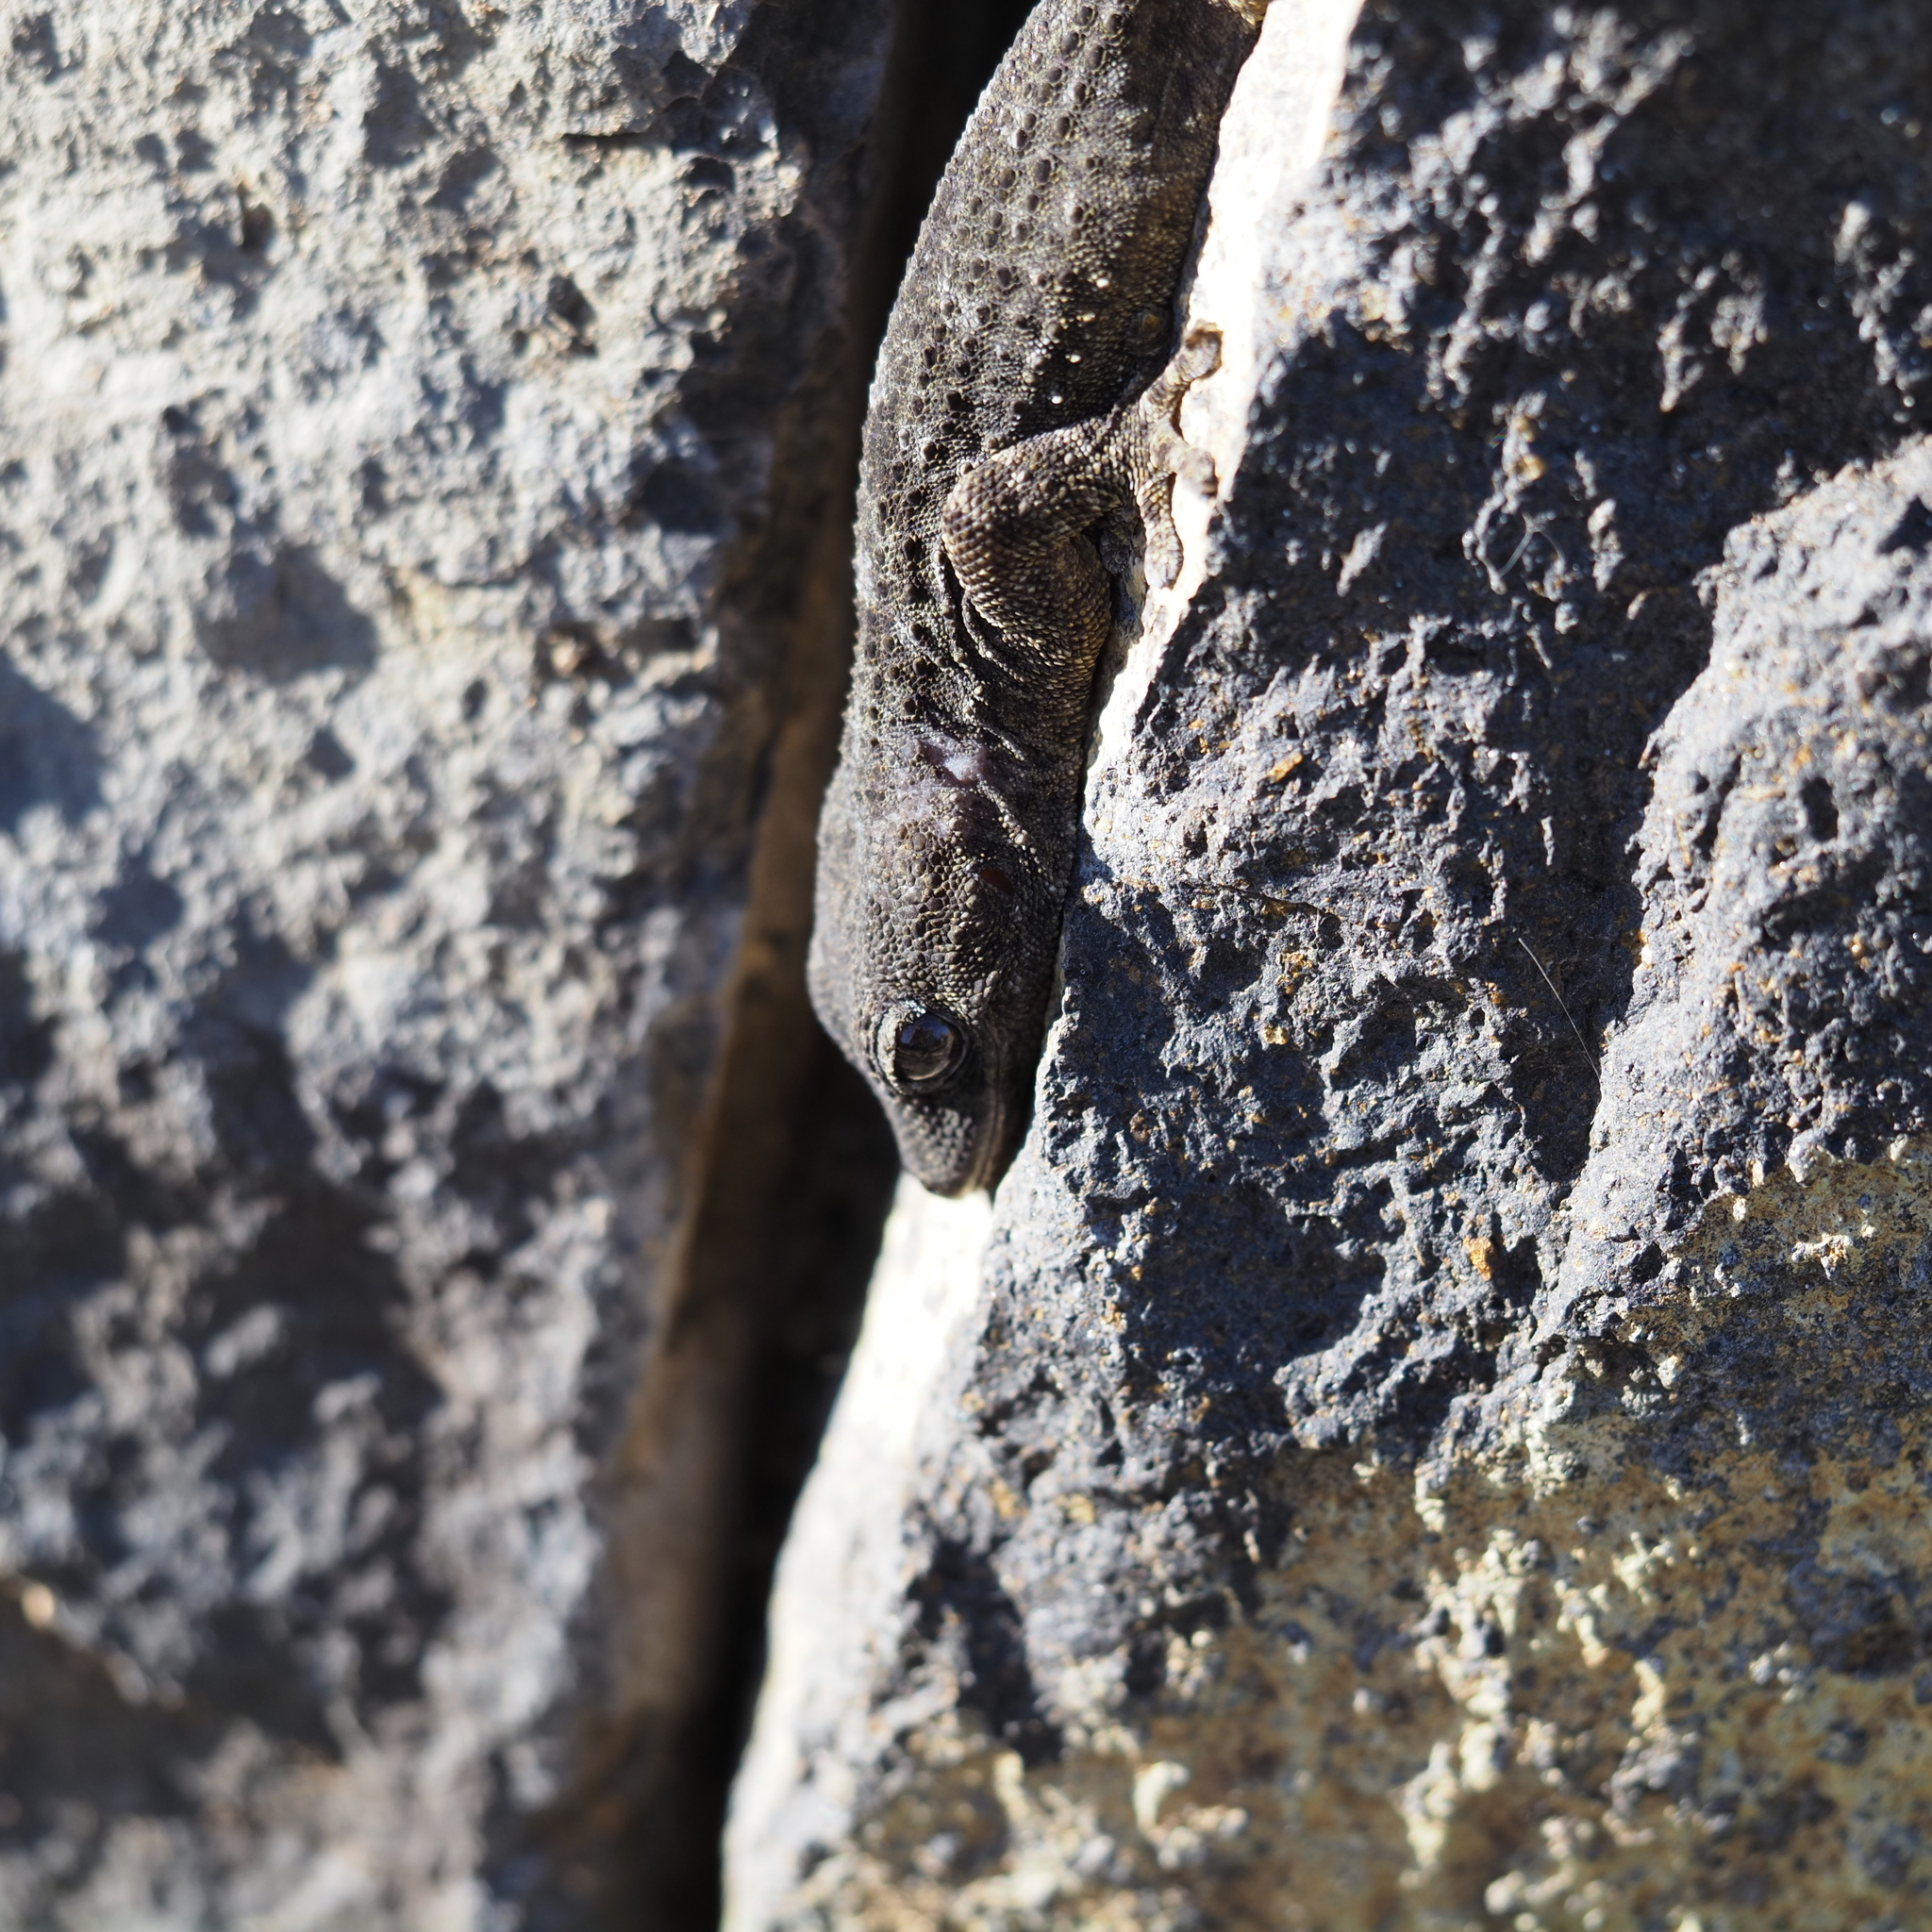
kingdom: Animalia
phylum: Chordata
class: Squamata
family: Phyllodactylidae
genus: Tarentola
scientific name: Tarentola delalandii
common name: Tenerife wall gecko
